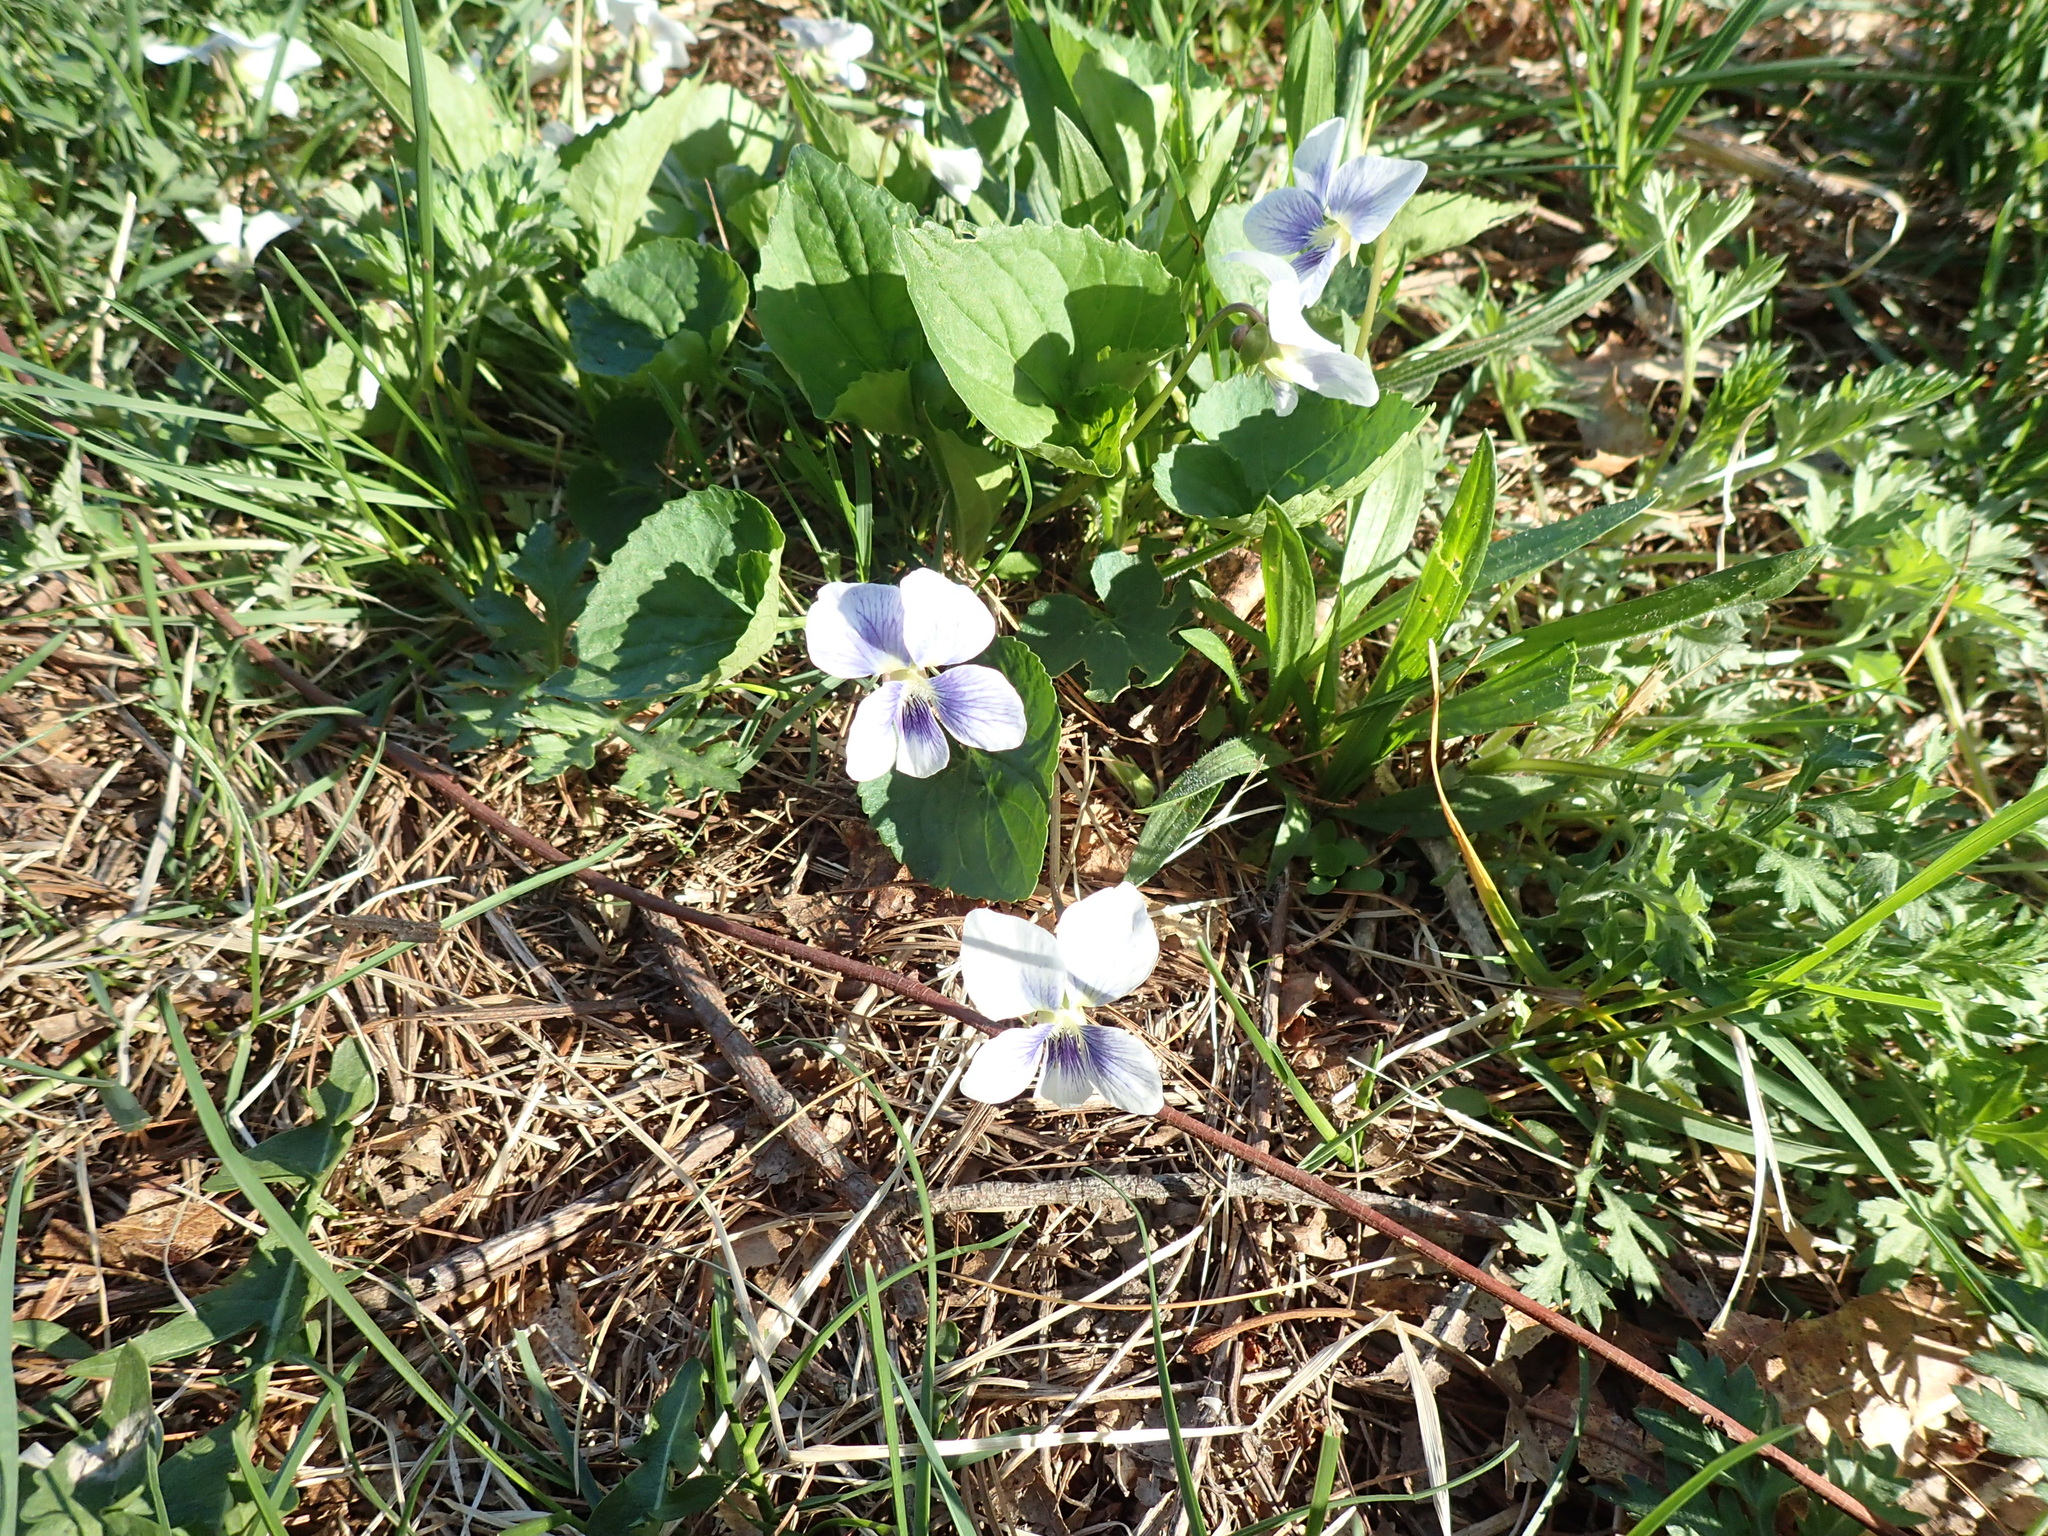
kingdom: Plantae
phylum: Tracheophyta
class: Magnoliopsida
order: Malpighiales
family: Violaceae
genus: Viola
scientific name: Viola sororia
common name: Dooryard violet
